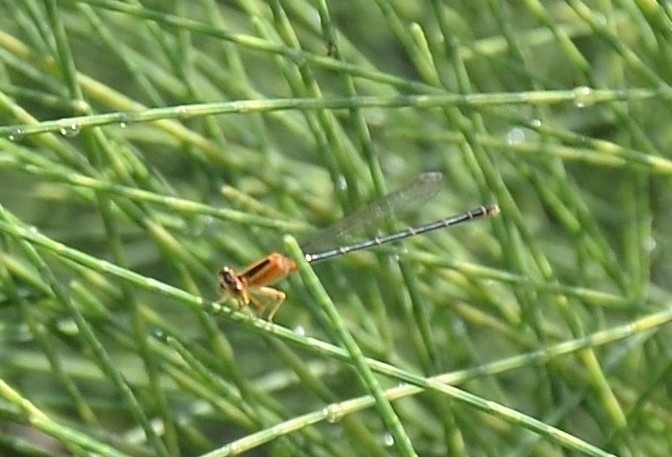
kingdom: Animalia
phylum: Arthropoda
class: Insecta
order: Odonata
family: Coenagrionidae
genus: Ischnura
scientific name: Ischnura senegalensis
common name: Tropical bluetail
